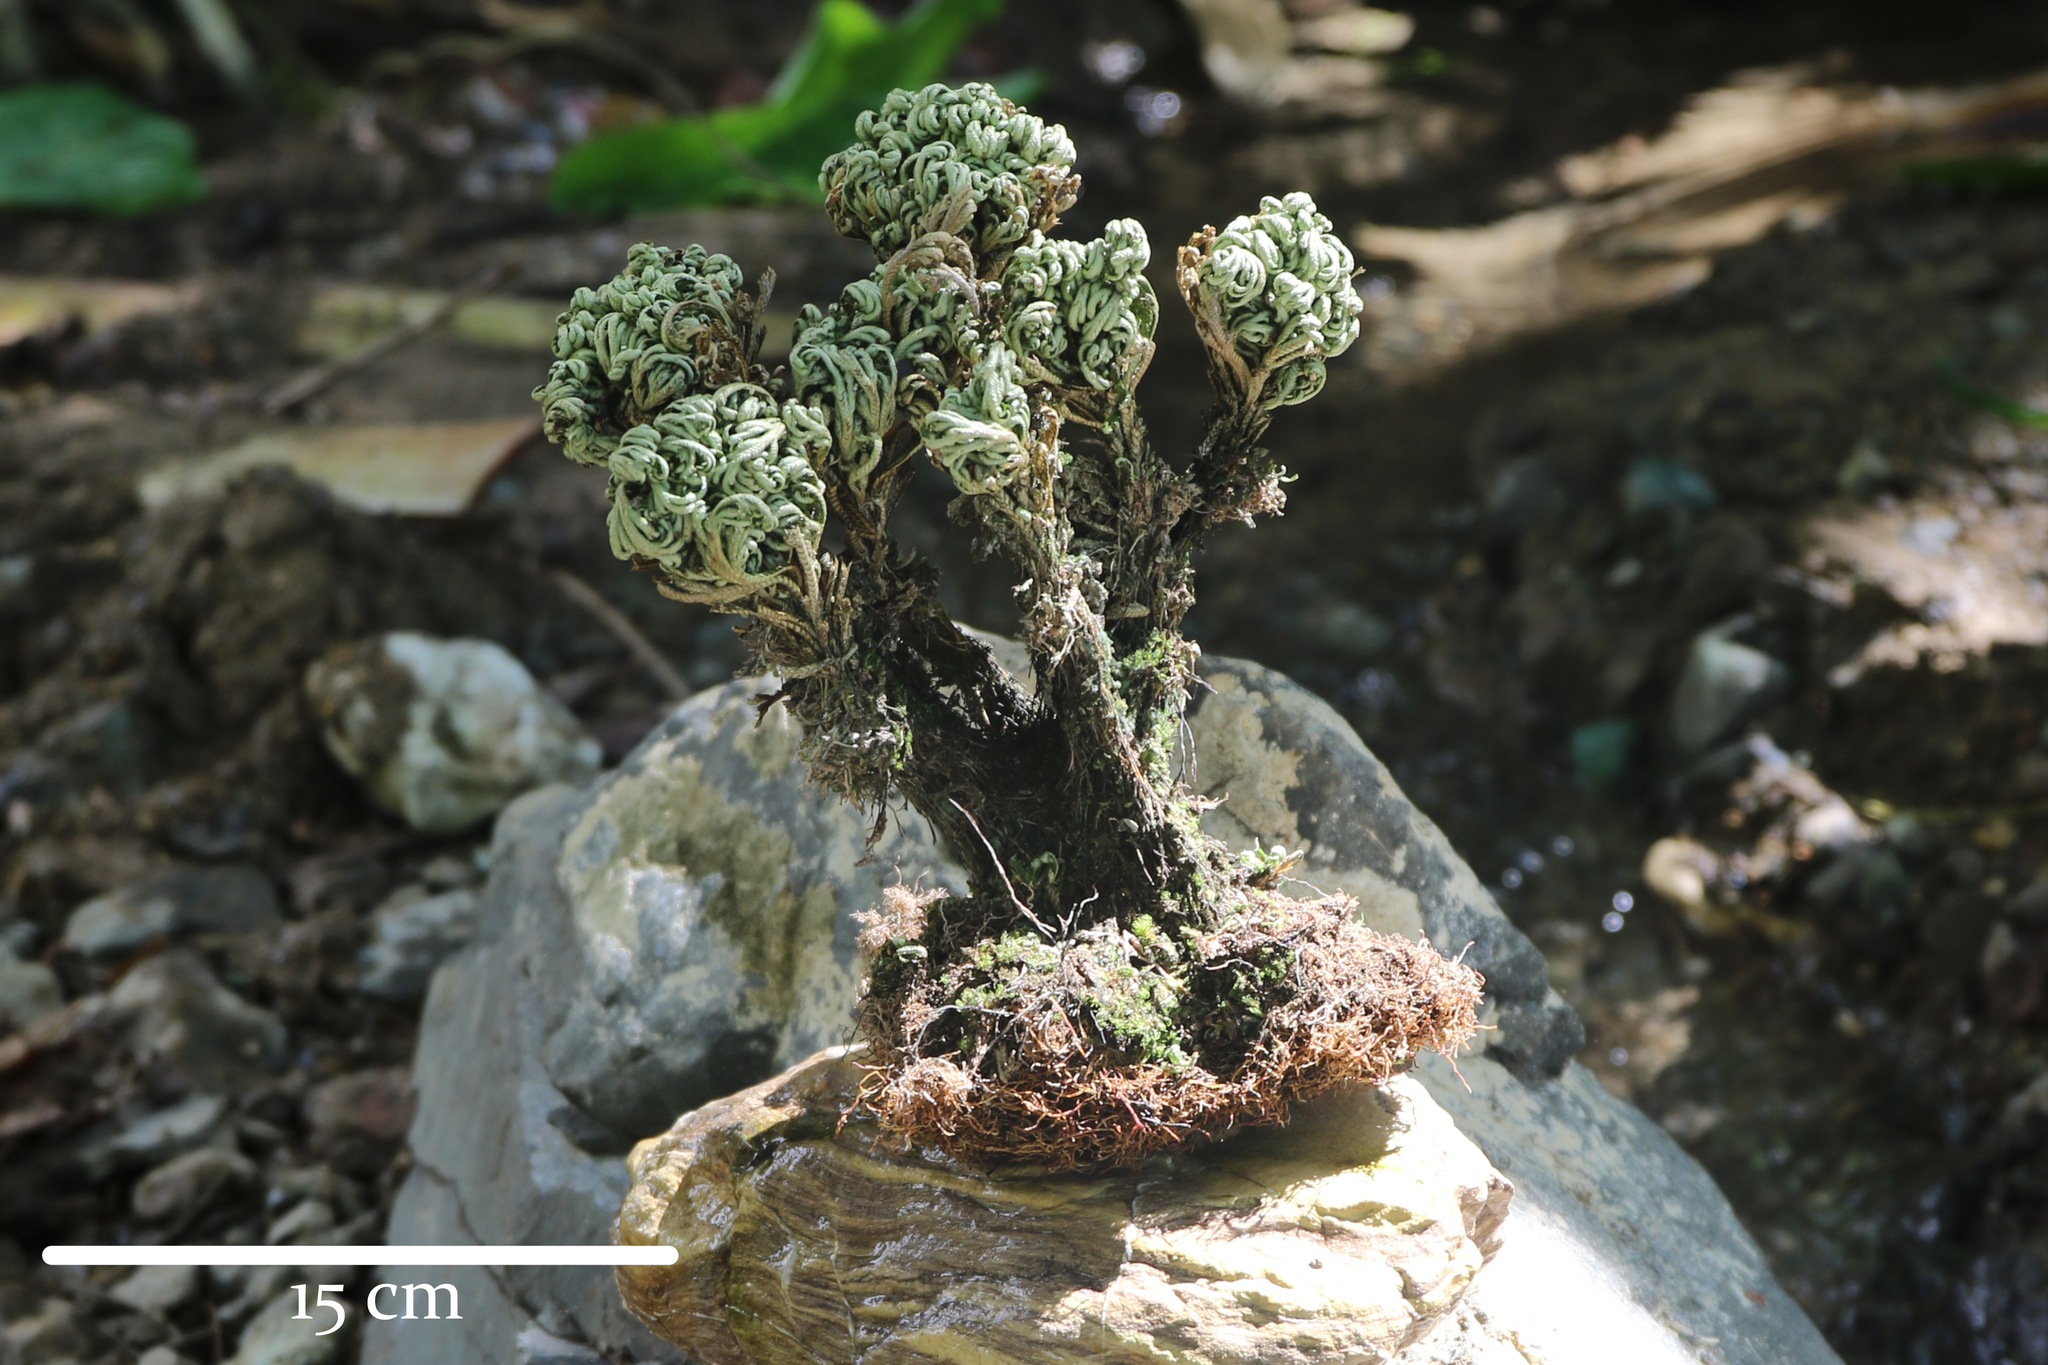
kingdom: Plantae
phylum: Tracheophyta
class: Lycopodiopsida
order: Selaginellales
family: Selaginellaceae
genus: Selaginella
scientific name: Selaginella tamariscina
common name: Little-club-moss
